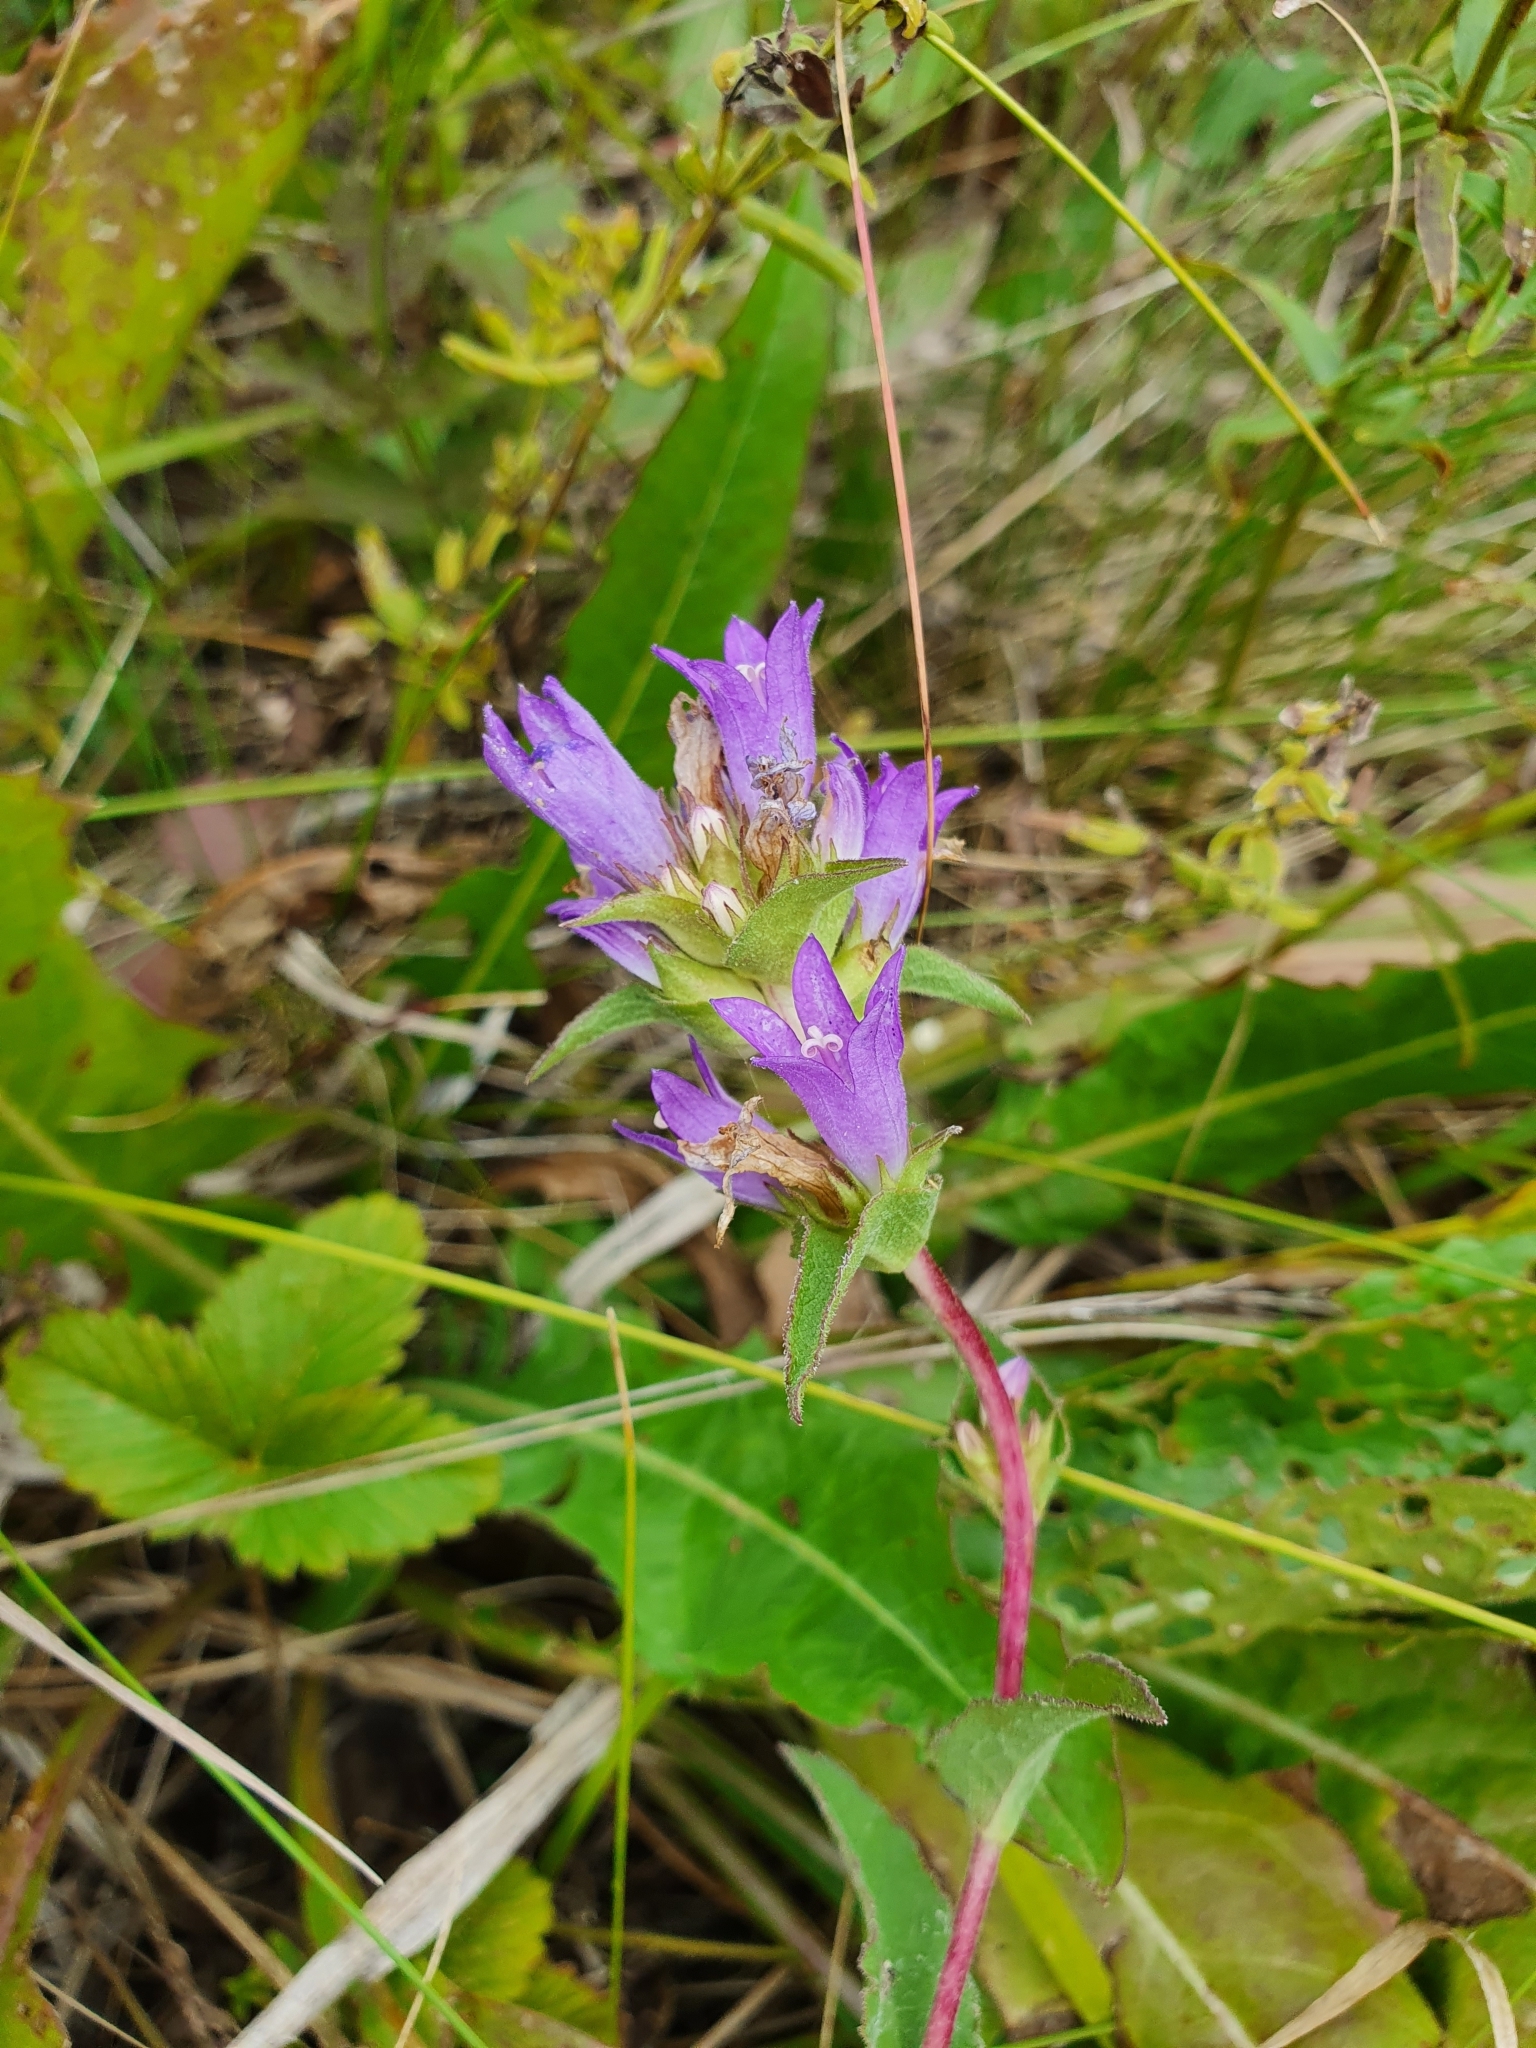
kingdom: Plantae
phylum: Tracheophyta
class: Magnoliopsida
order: Asterales
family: Campanulaceae
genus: Campanula
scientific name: Campanula glomerata
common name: Clustered bellflower
